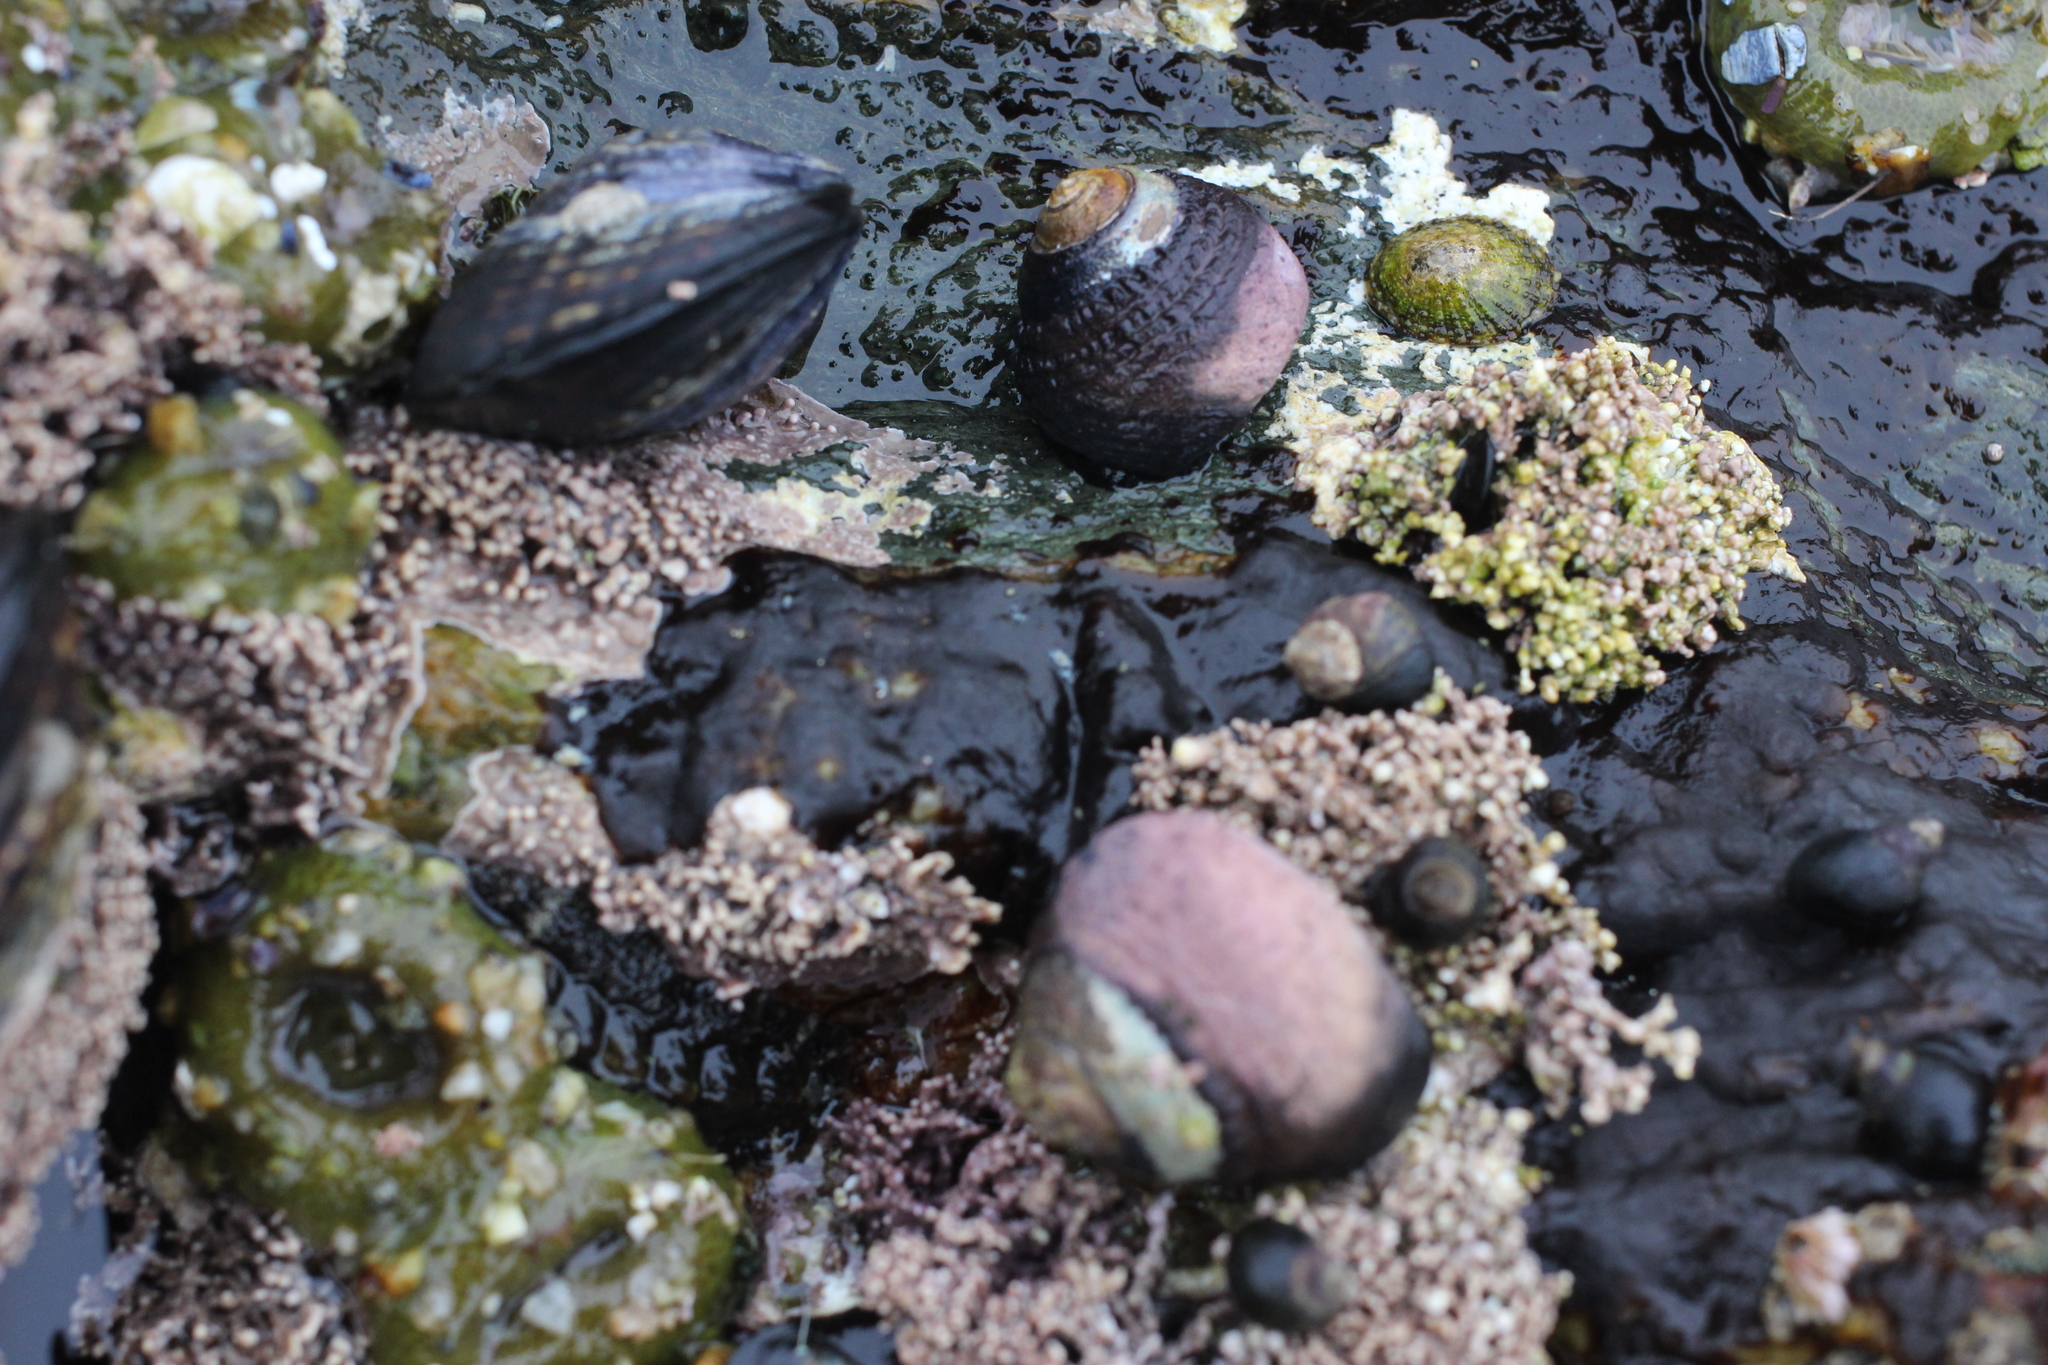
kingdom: Animalia
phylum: Mollusca
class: Gastropoda
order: Trochida
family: Tegulidae
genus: Tegula
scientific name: Tegula funebralis
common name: Black tegula
